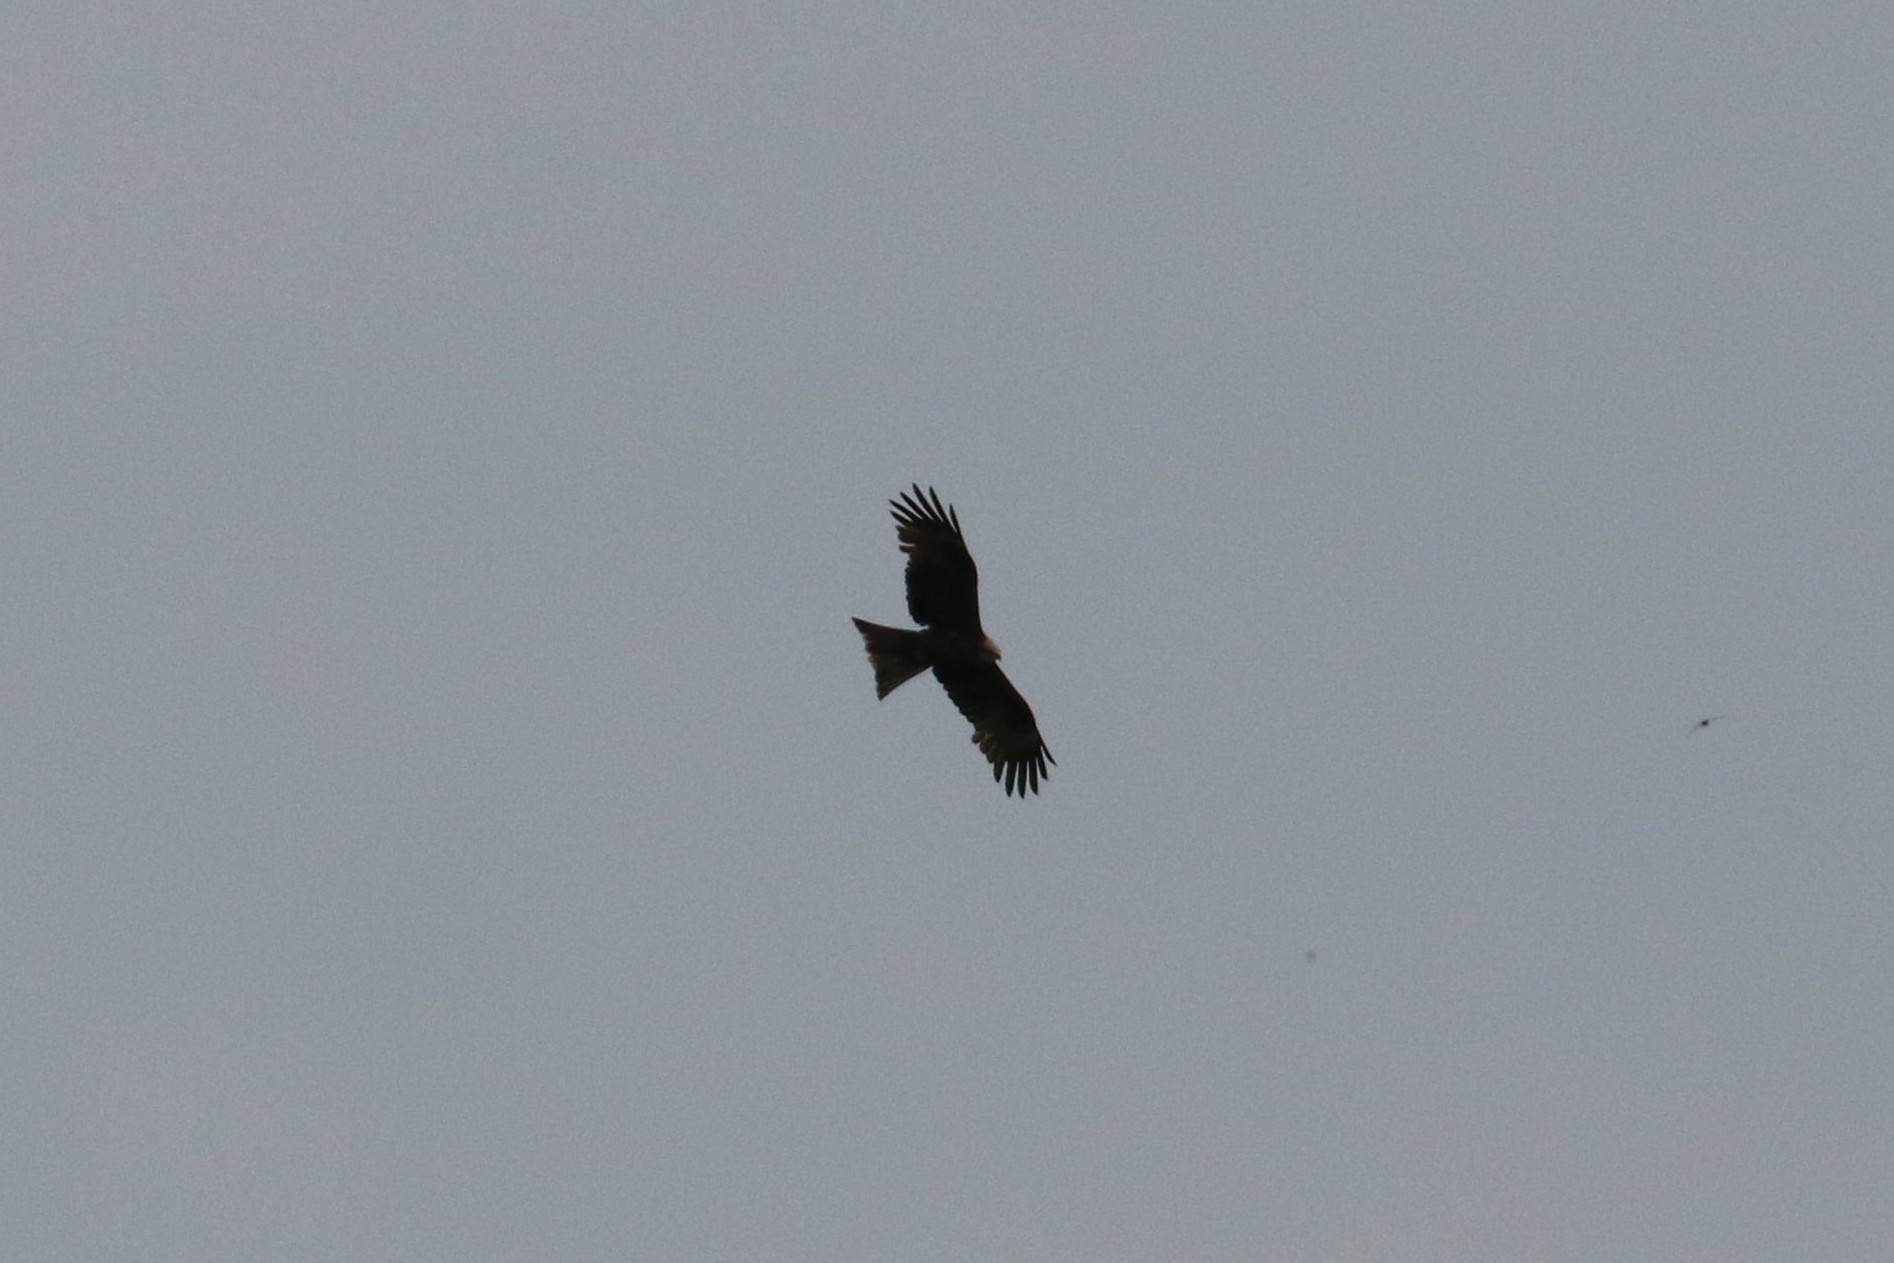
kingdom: Animalia
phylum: Chordata
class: Aves
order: Accipitriformes
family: Accipitridae
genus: Milvus
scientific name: Milvus migrans
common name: Black kite
